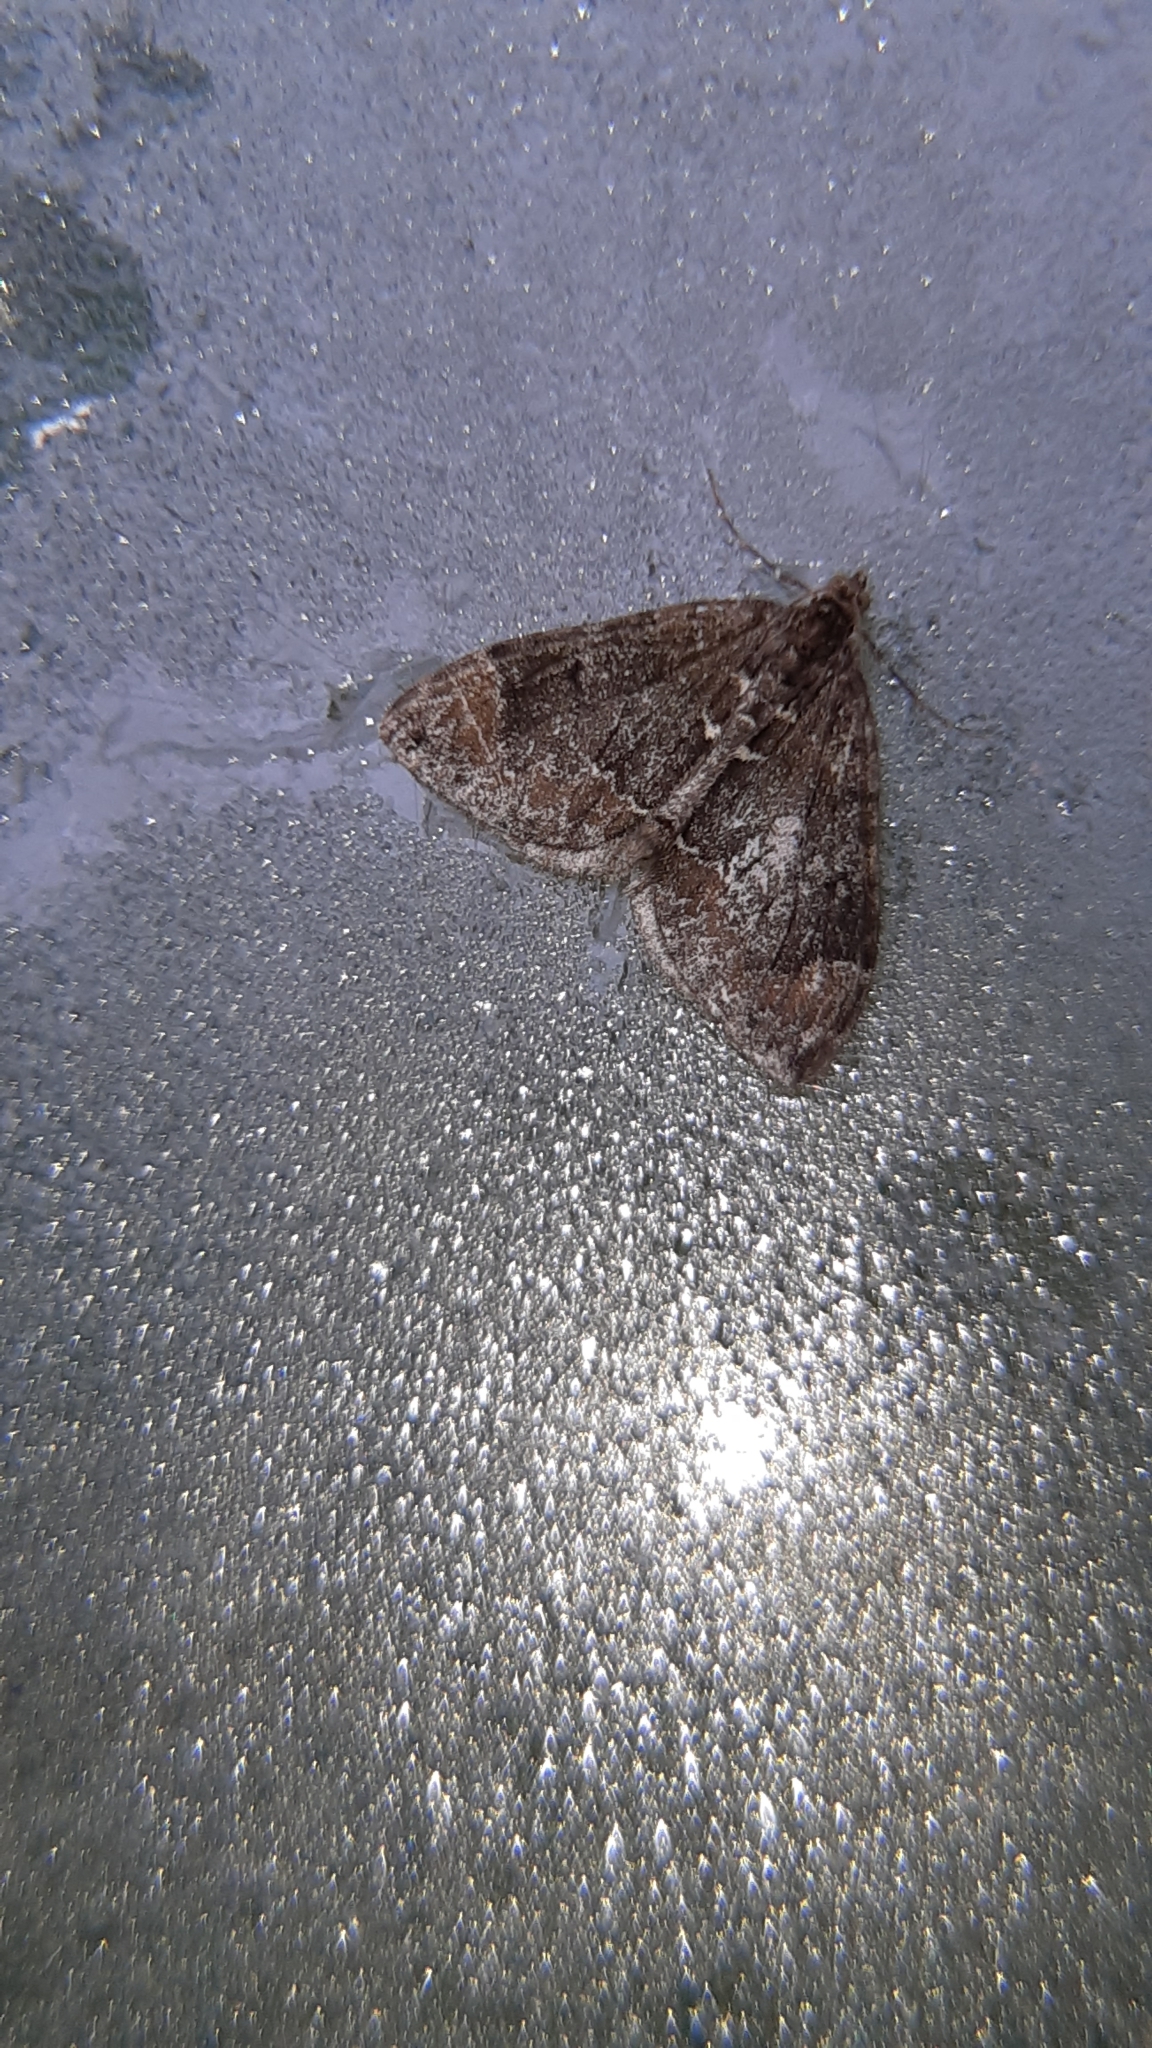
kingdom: Animalia
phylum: Arthropoda
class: Insecta
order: Lepidoptera
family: Geometridae
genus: Dysstroma
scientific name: Dysstroma truncata
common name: Common marbled carpet
